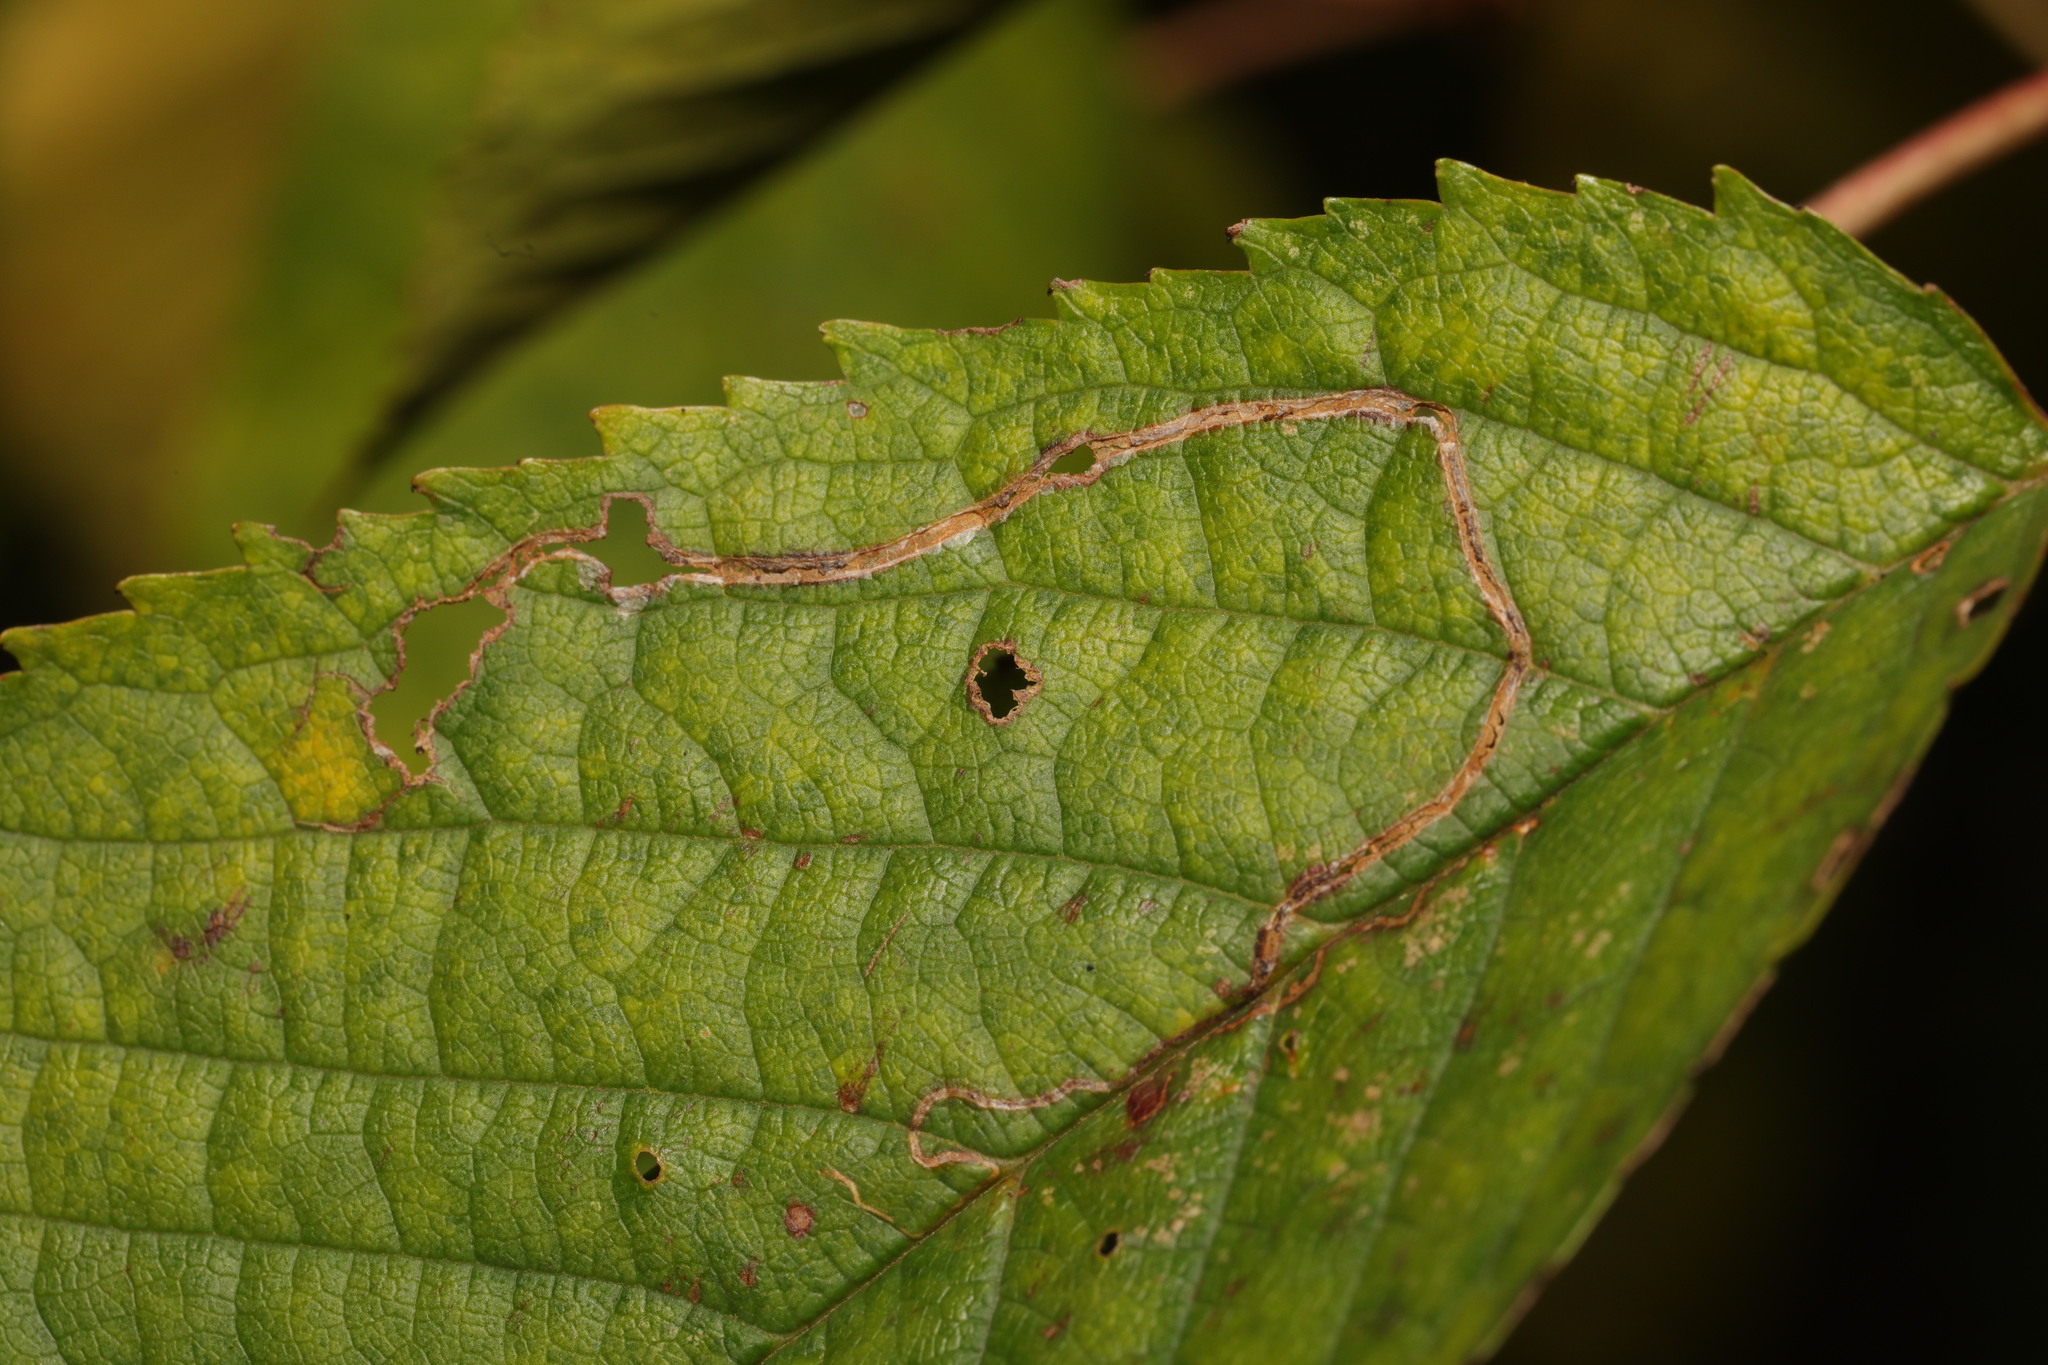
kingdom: Animalia
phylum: Arthropoda
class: Insecta
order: Lepidoptera
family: Lyonetiidae
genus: Lyonetia
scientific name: Lyonetia clerkella
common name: Apple leaf miner
